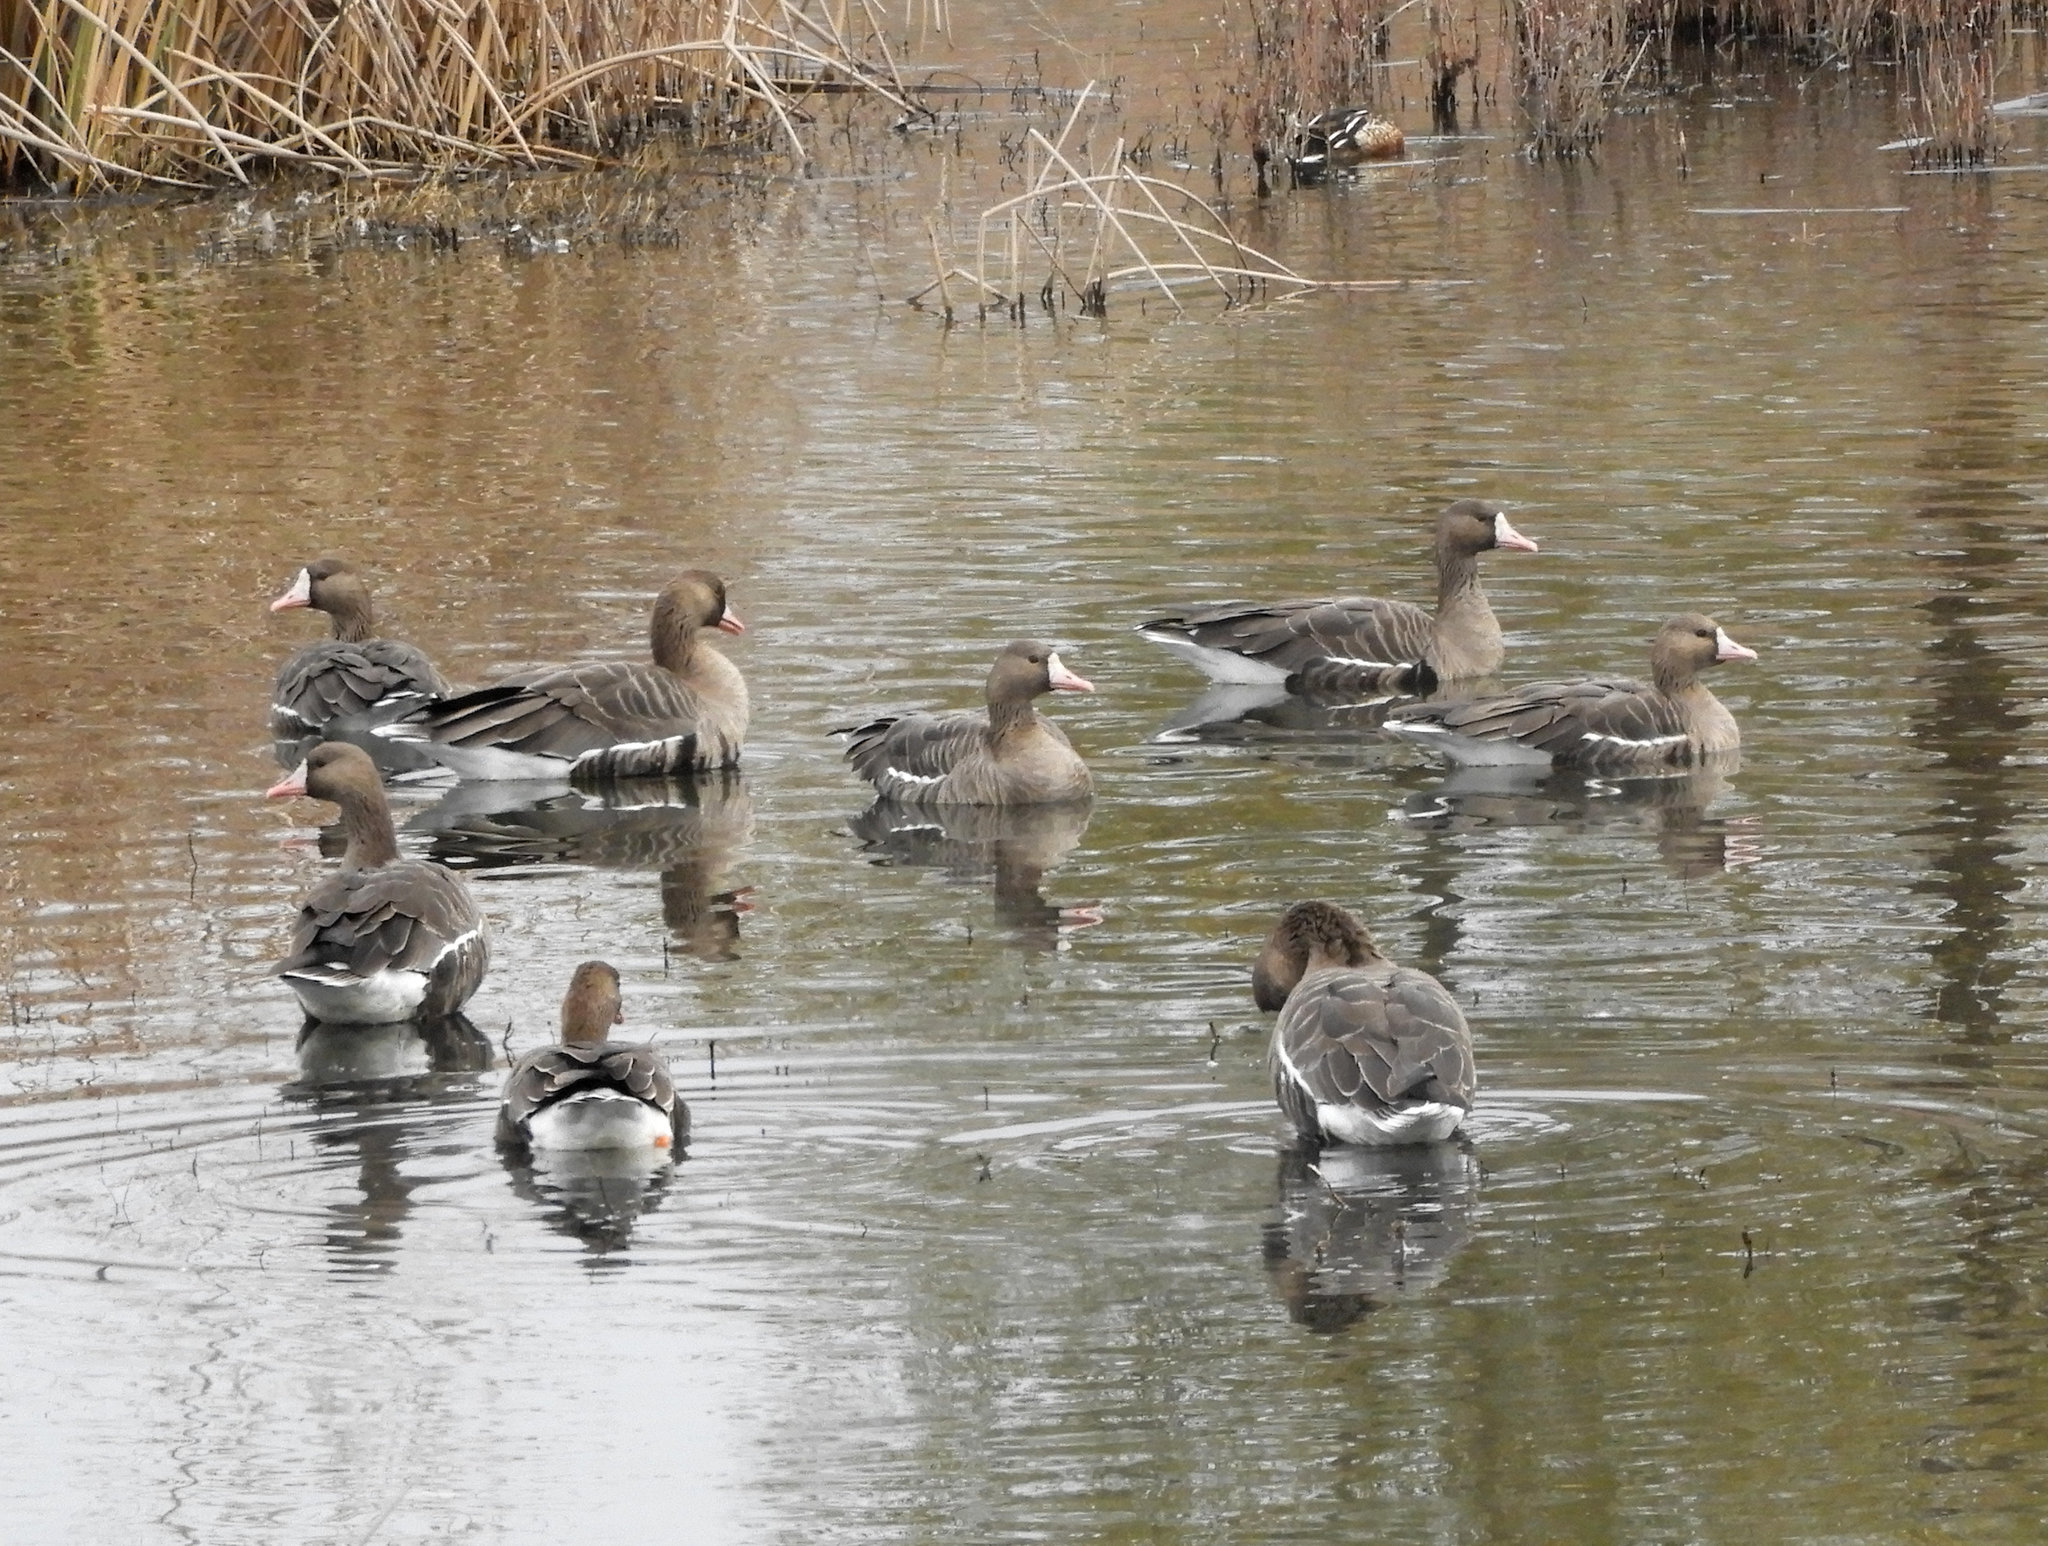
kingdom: Animalia
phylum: Chordata
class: Aves
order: Anseriformes
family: Anatidae
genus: Anser
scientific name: Anser albifrons
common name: Greater white-fronted goose
